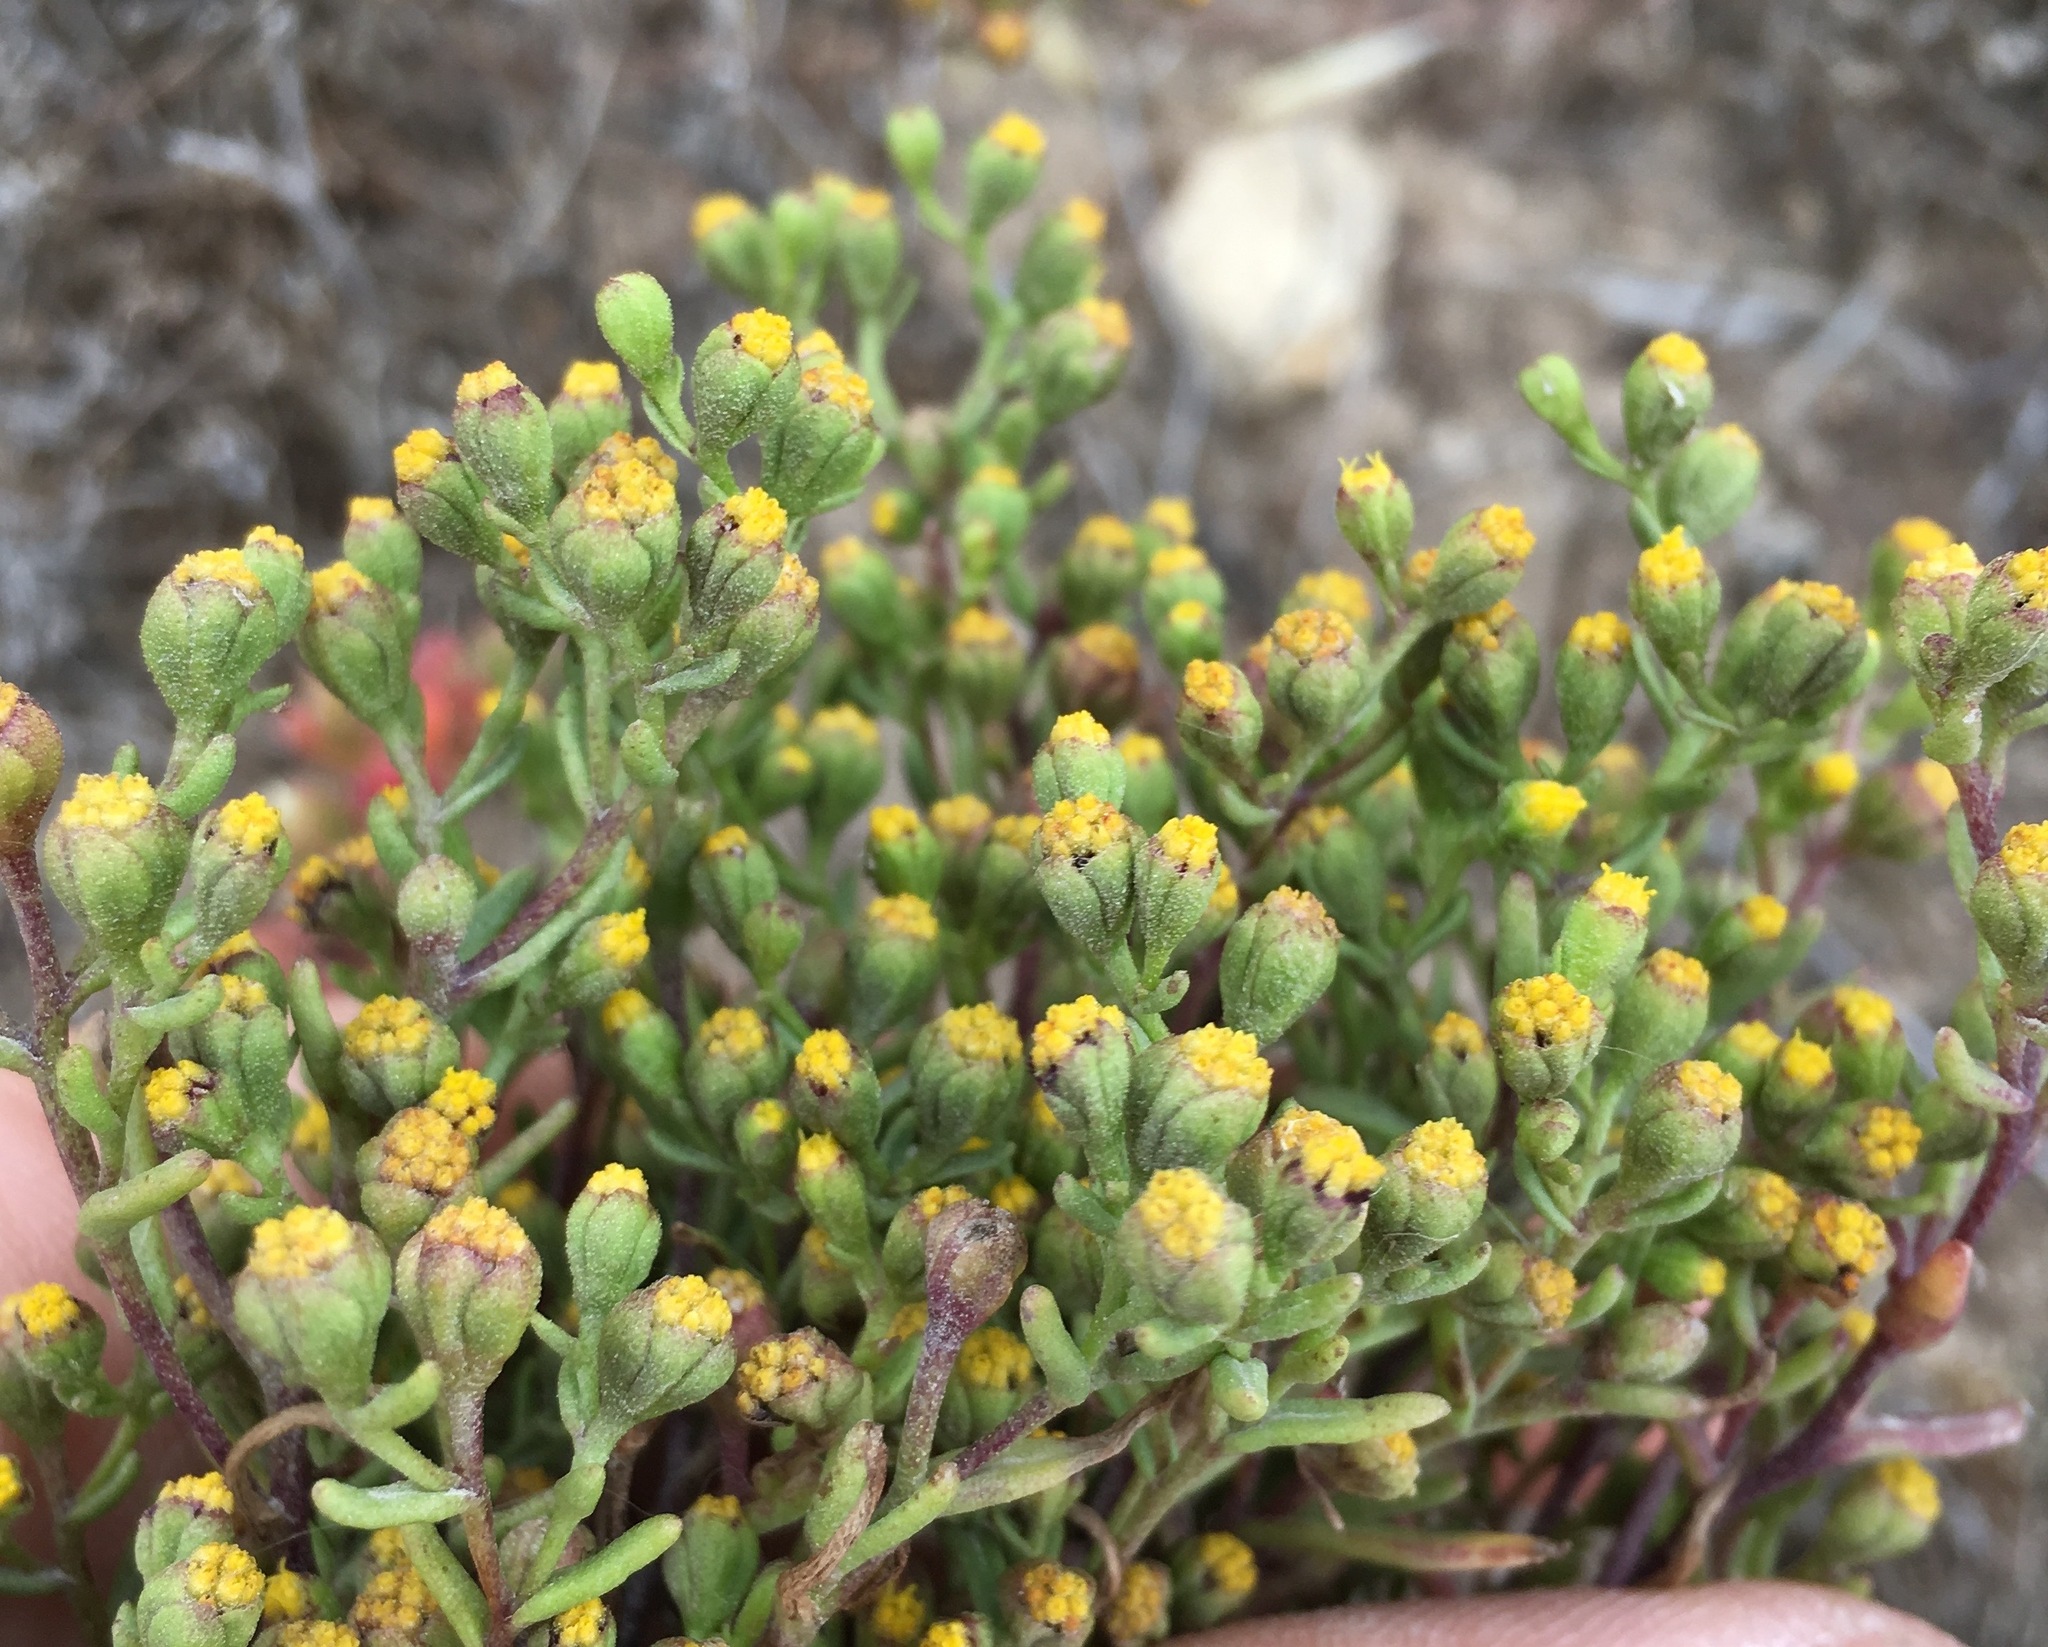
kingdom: Plantae
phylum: Tracheophyta
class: Magnoliopsida
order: Asterales
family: Asteraceae
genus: Amblyopappus
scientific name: Amblyopappus pusillus
